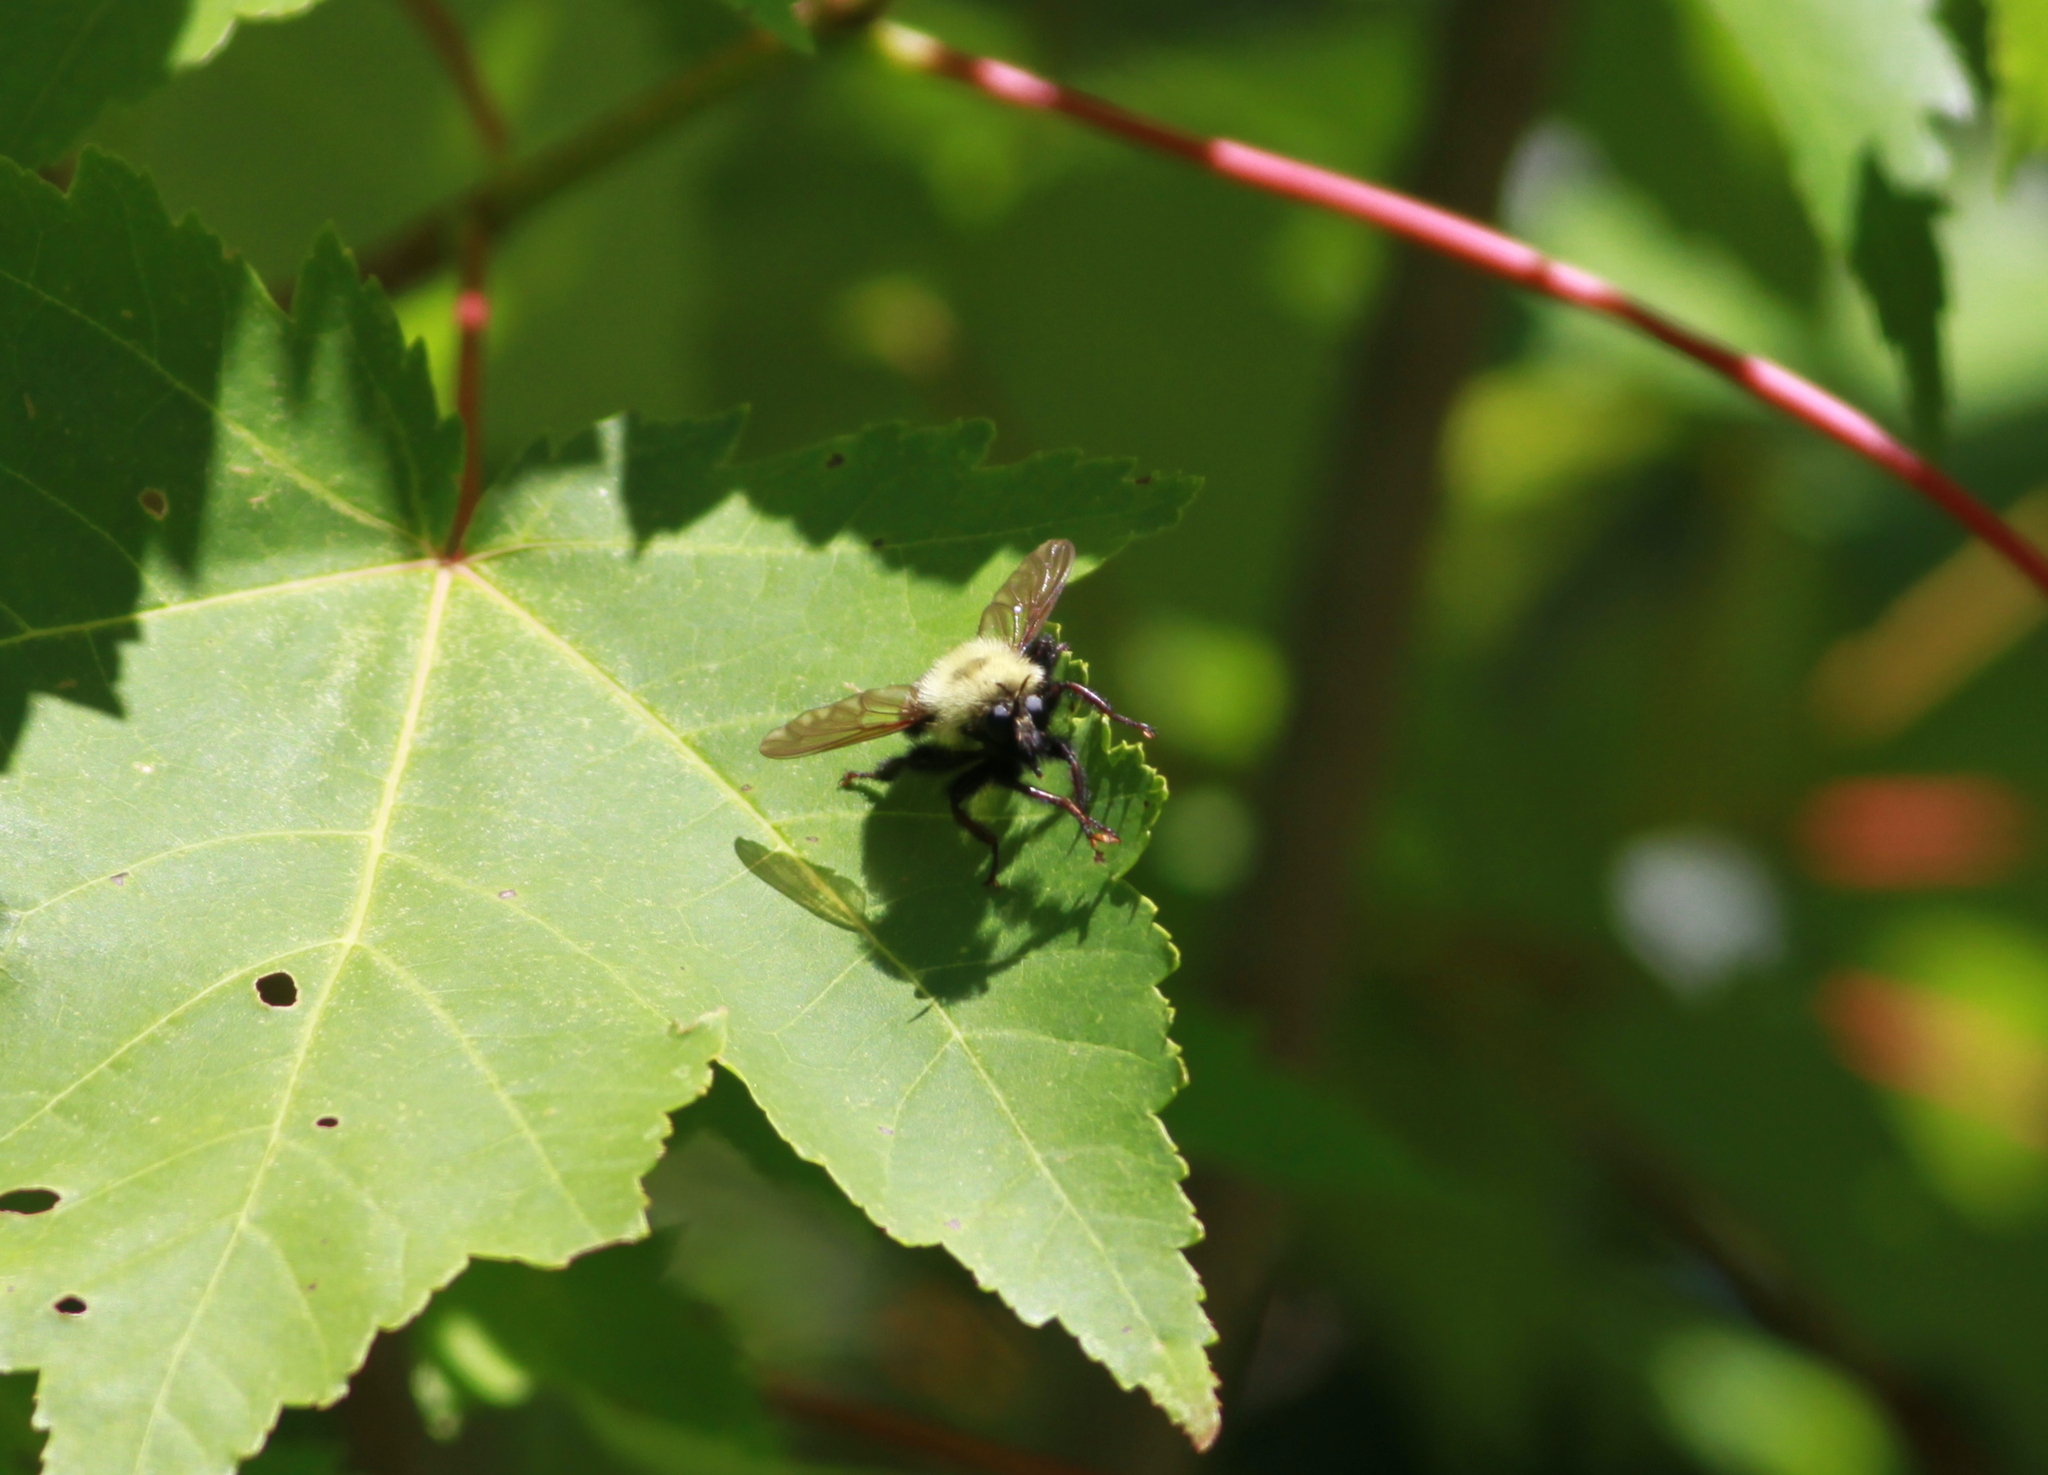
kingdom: Animalia
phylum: Arthropoda
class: Insecta
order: Diptera
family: Asilidae
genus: Laphria
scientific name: Laphria thoracica
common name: Bumble bee mimic robber fly
